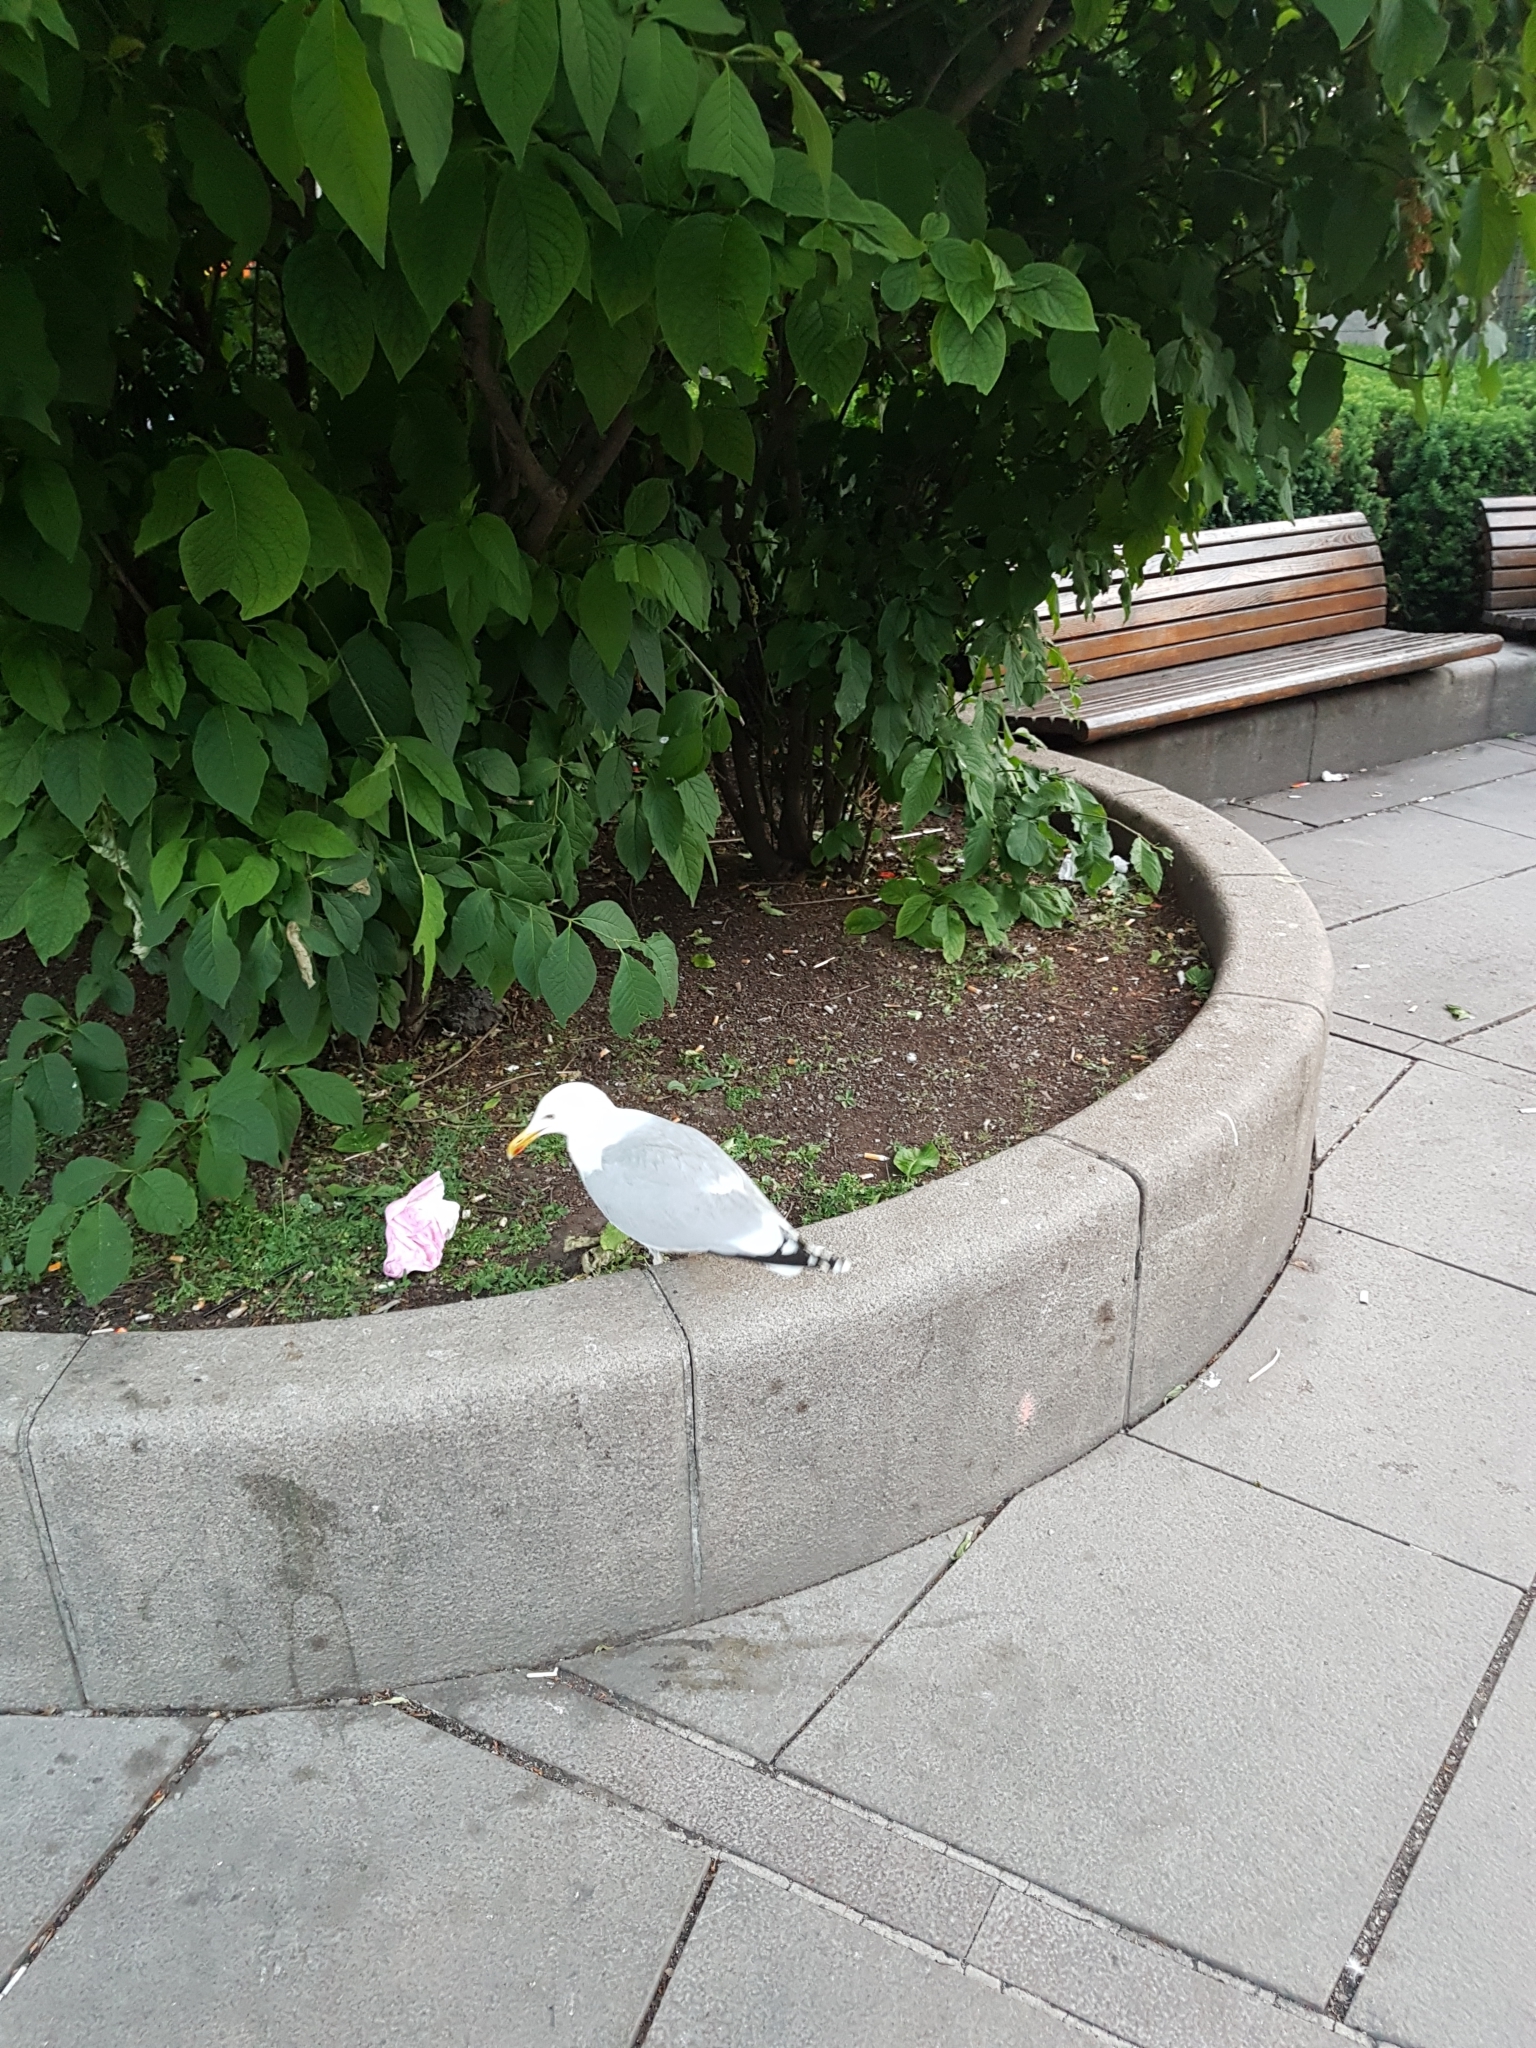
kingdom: Animalia
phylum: Chordata
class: Aves
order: Charadriiformes
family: Laridae
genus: Larus
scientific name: Larus argentatus
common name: Herring gull
